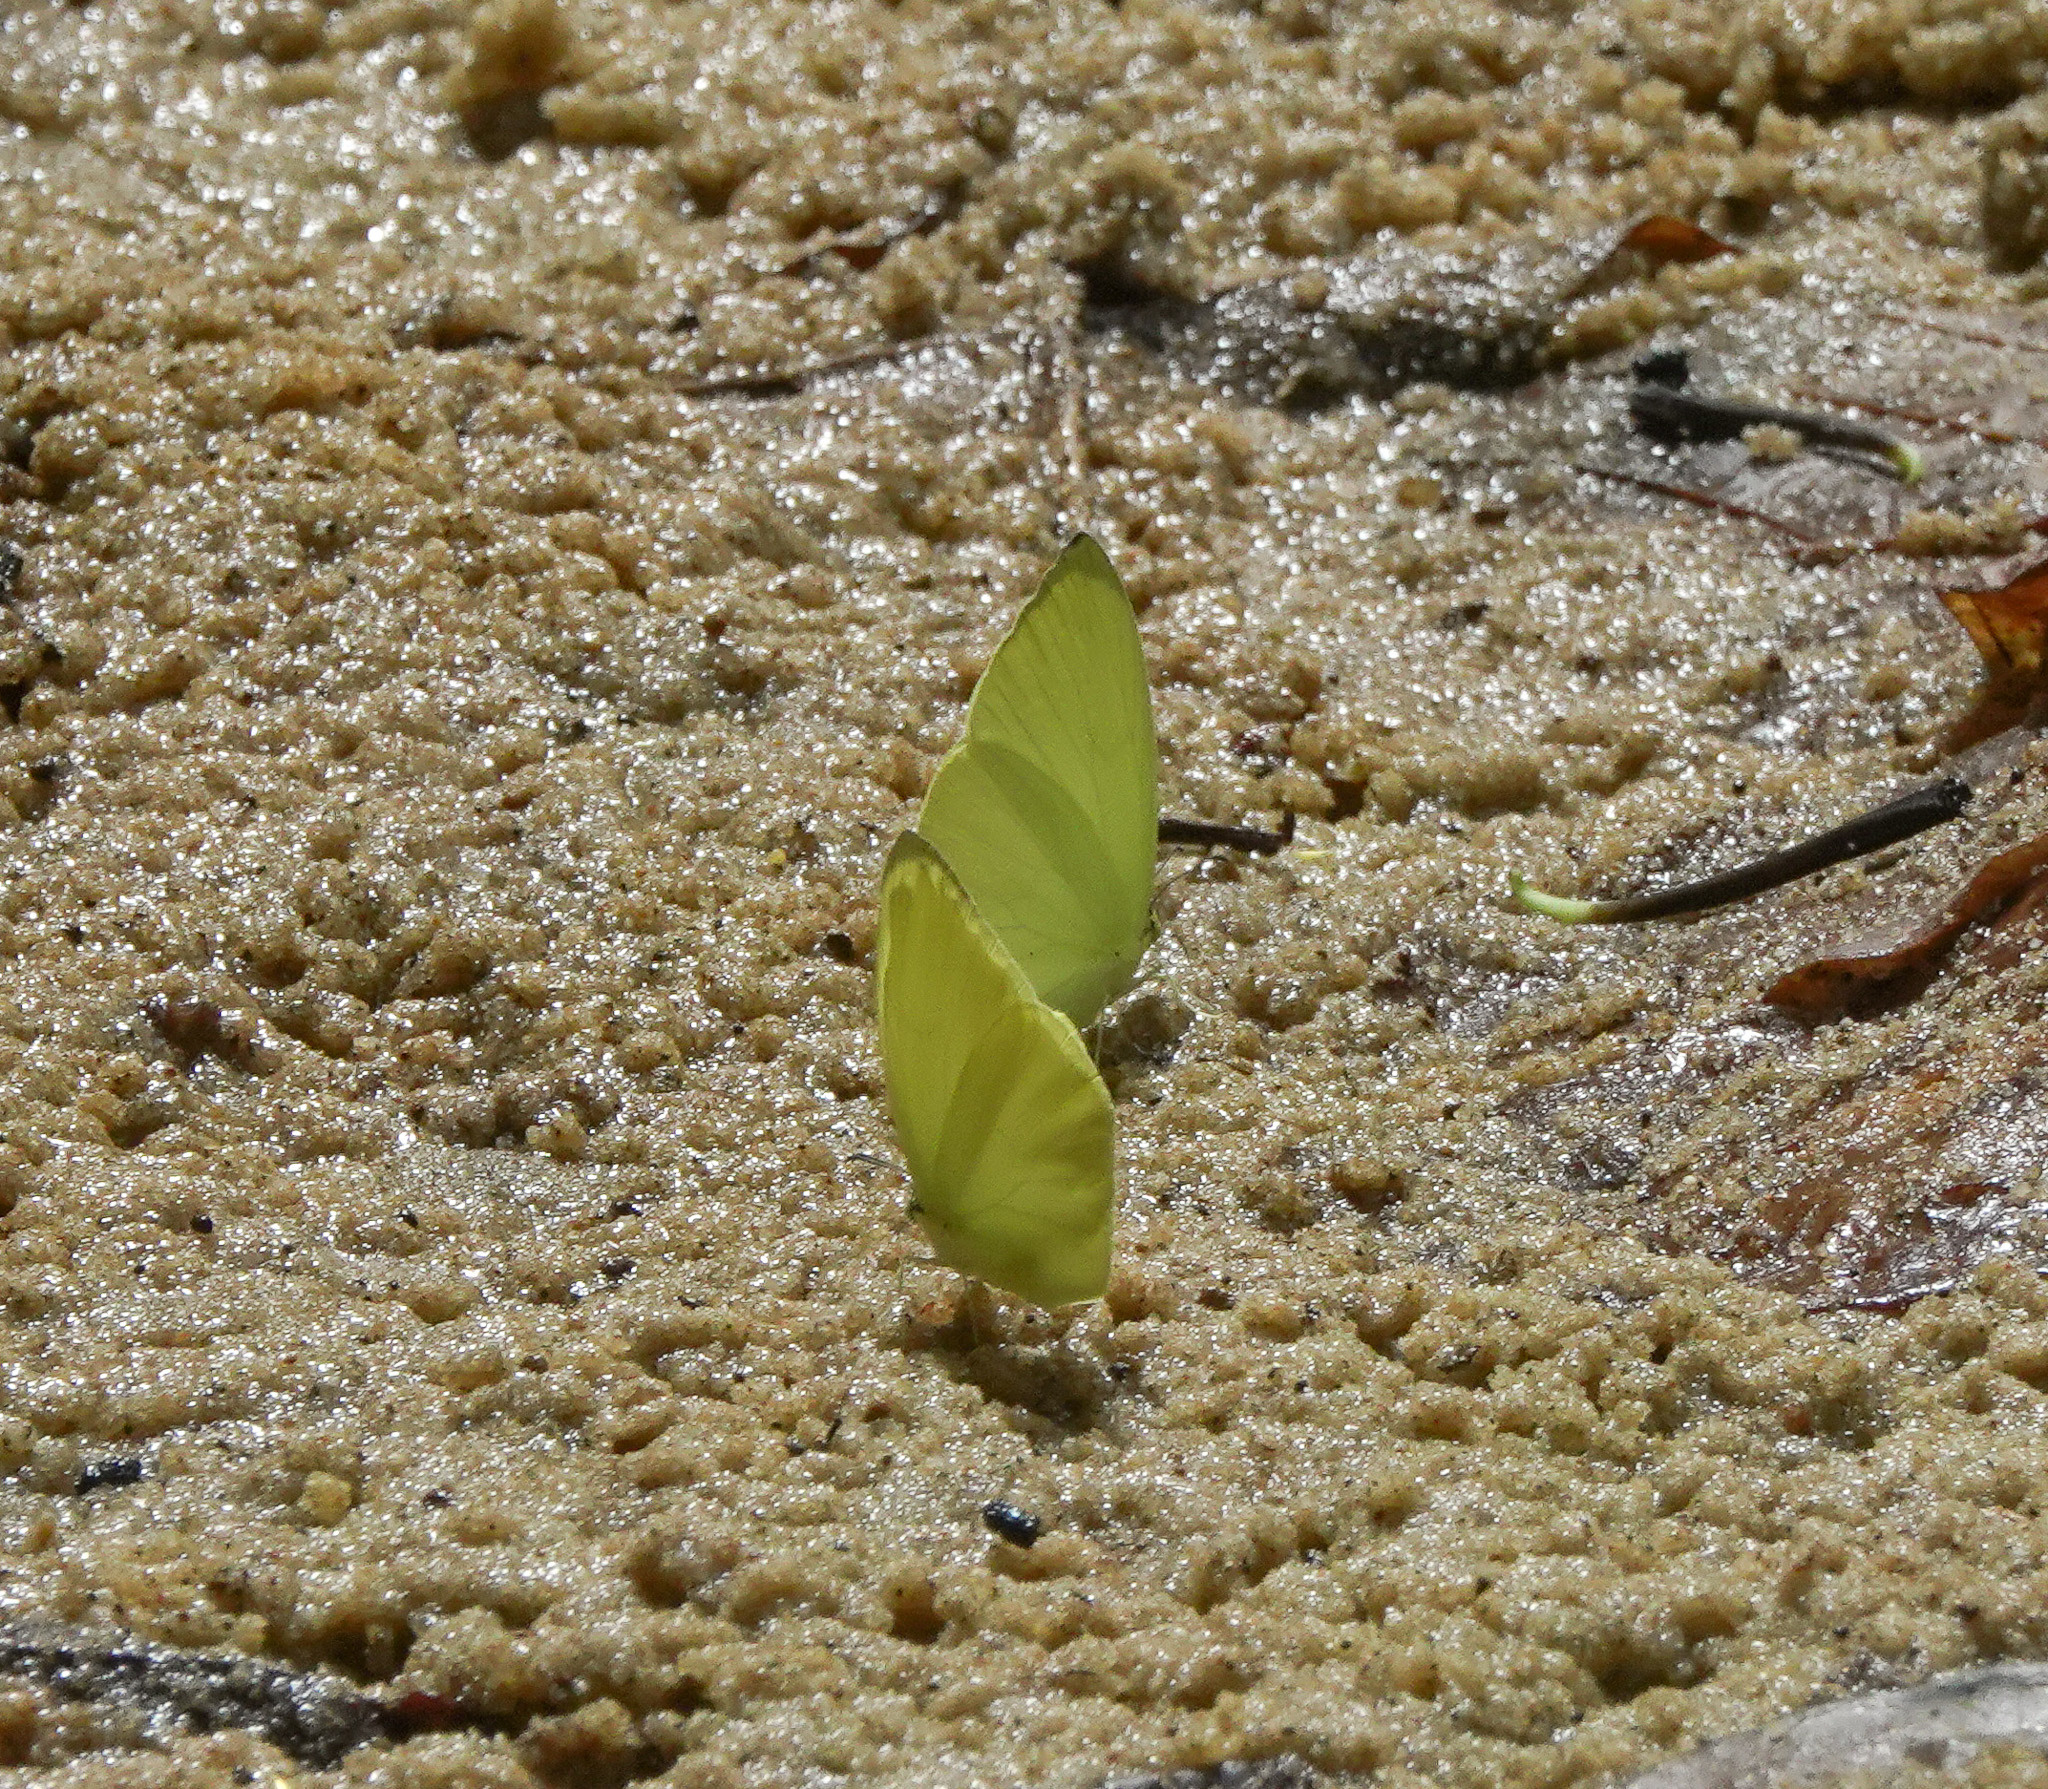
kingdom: Animalia
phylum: Arthropoda
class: Insecta
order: Lepidoptera
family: Pieridae
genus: Gandaca
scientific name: Gandaca harina
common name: Tree yellow
